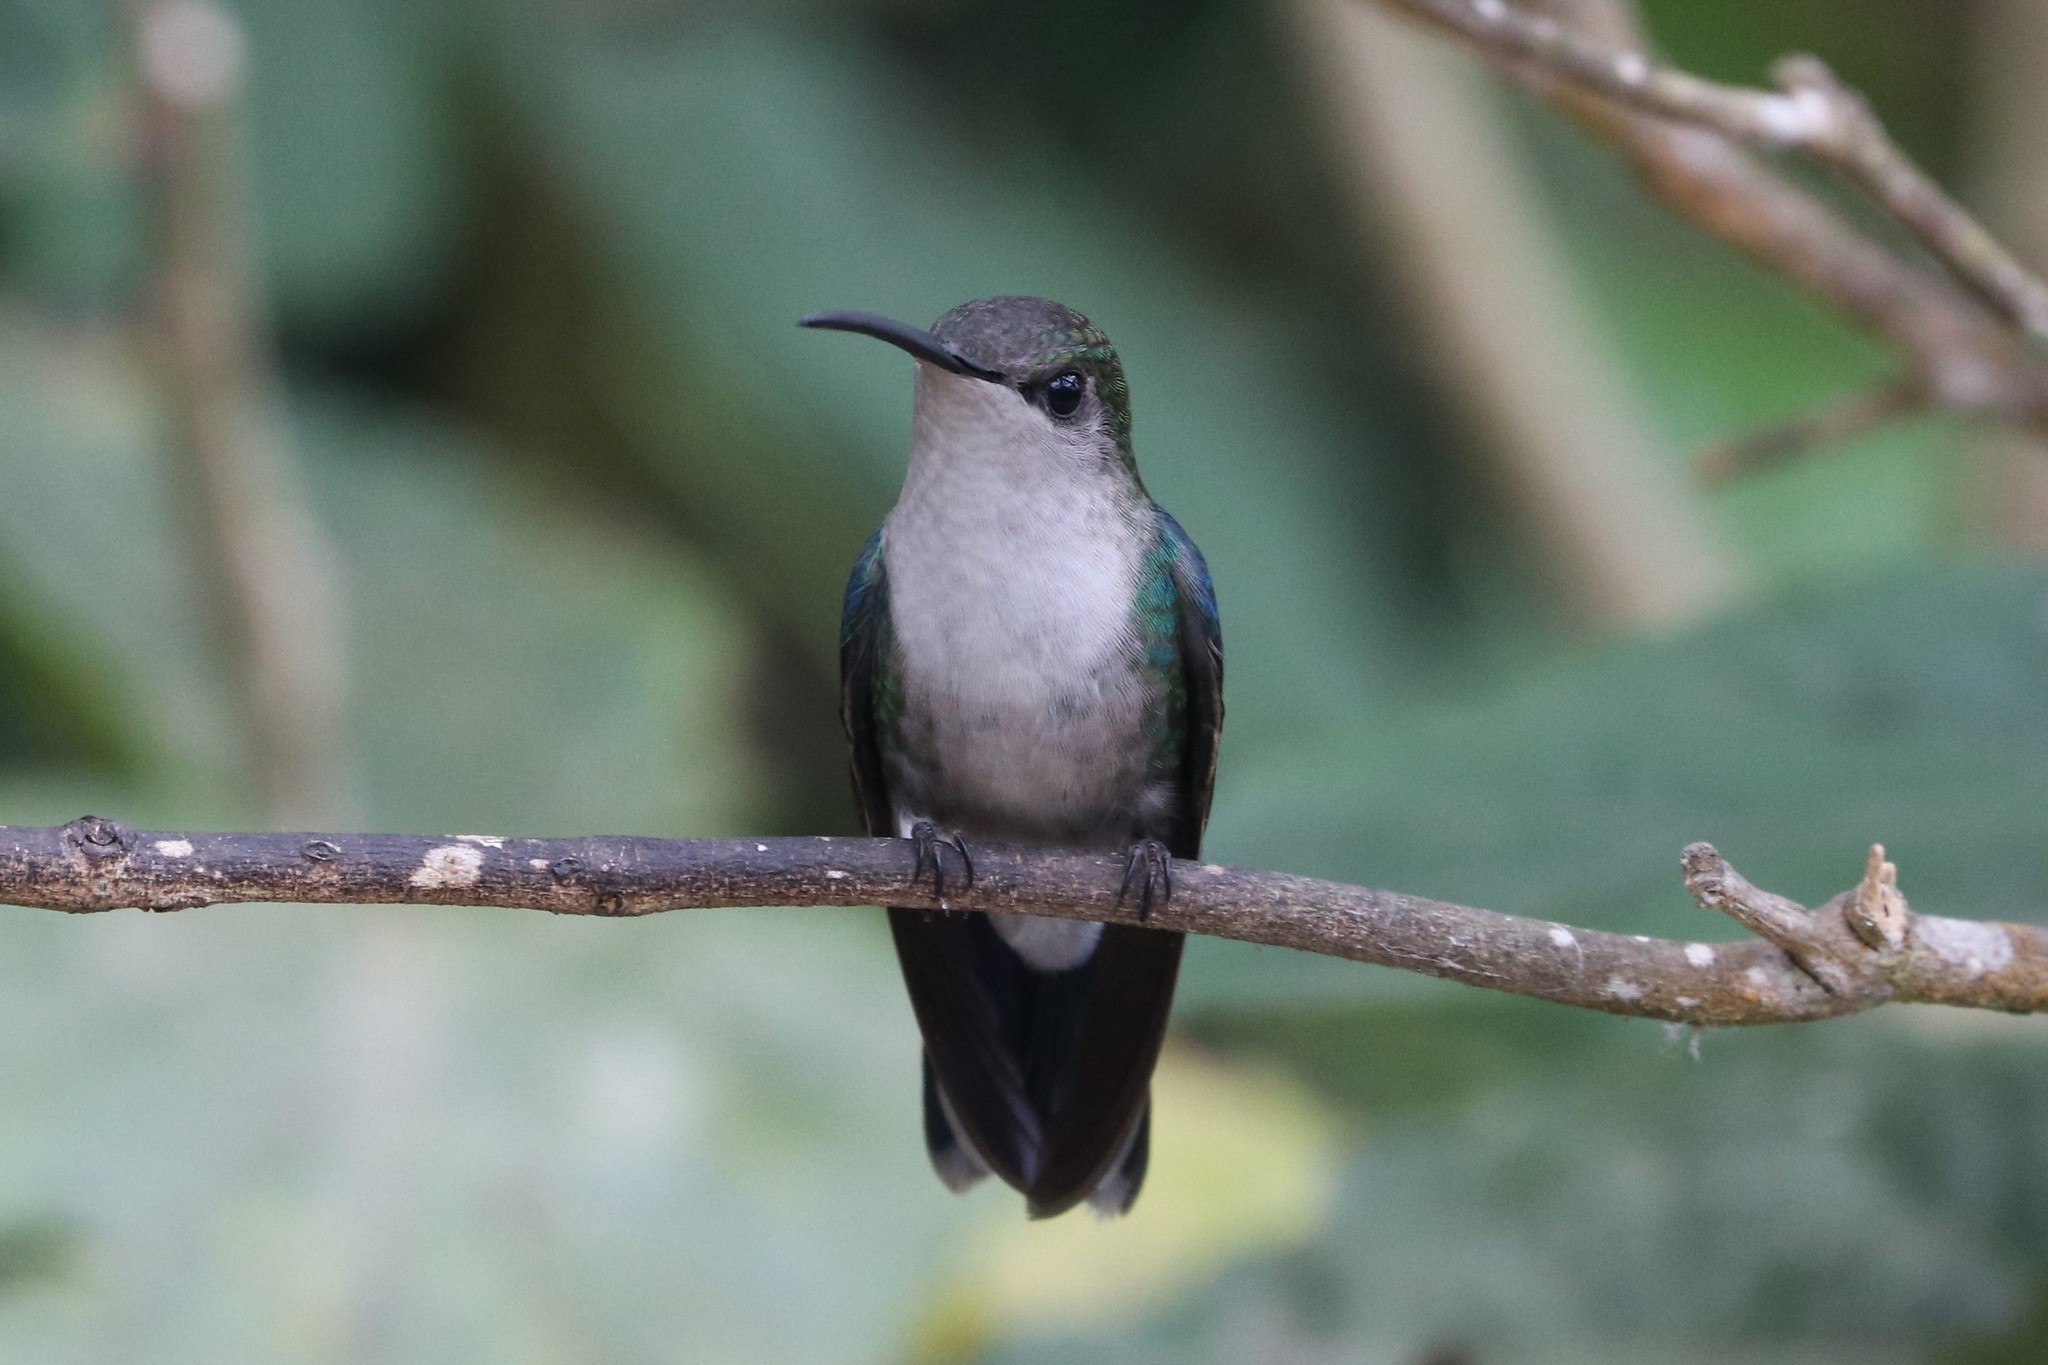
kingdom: Animalia
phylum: Chordata
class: Aves
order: Apodiformes
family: Trochilidae
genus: Thalurania
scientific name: Thalurania colombica
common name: Crowned woodnymph
